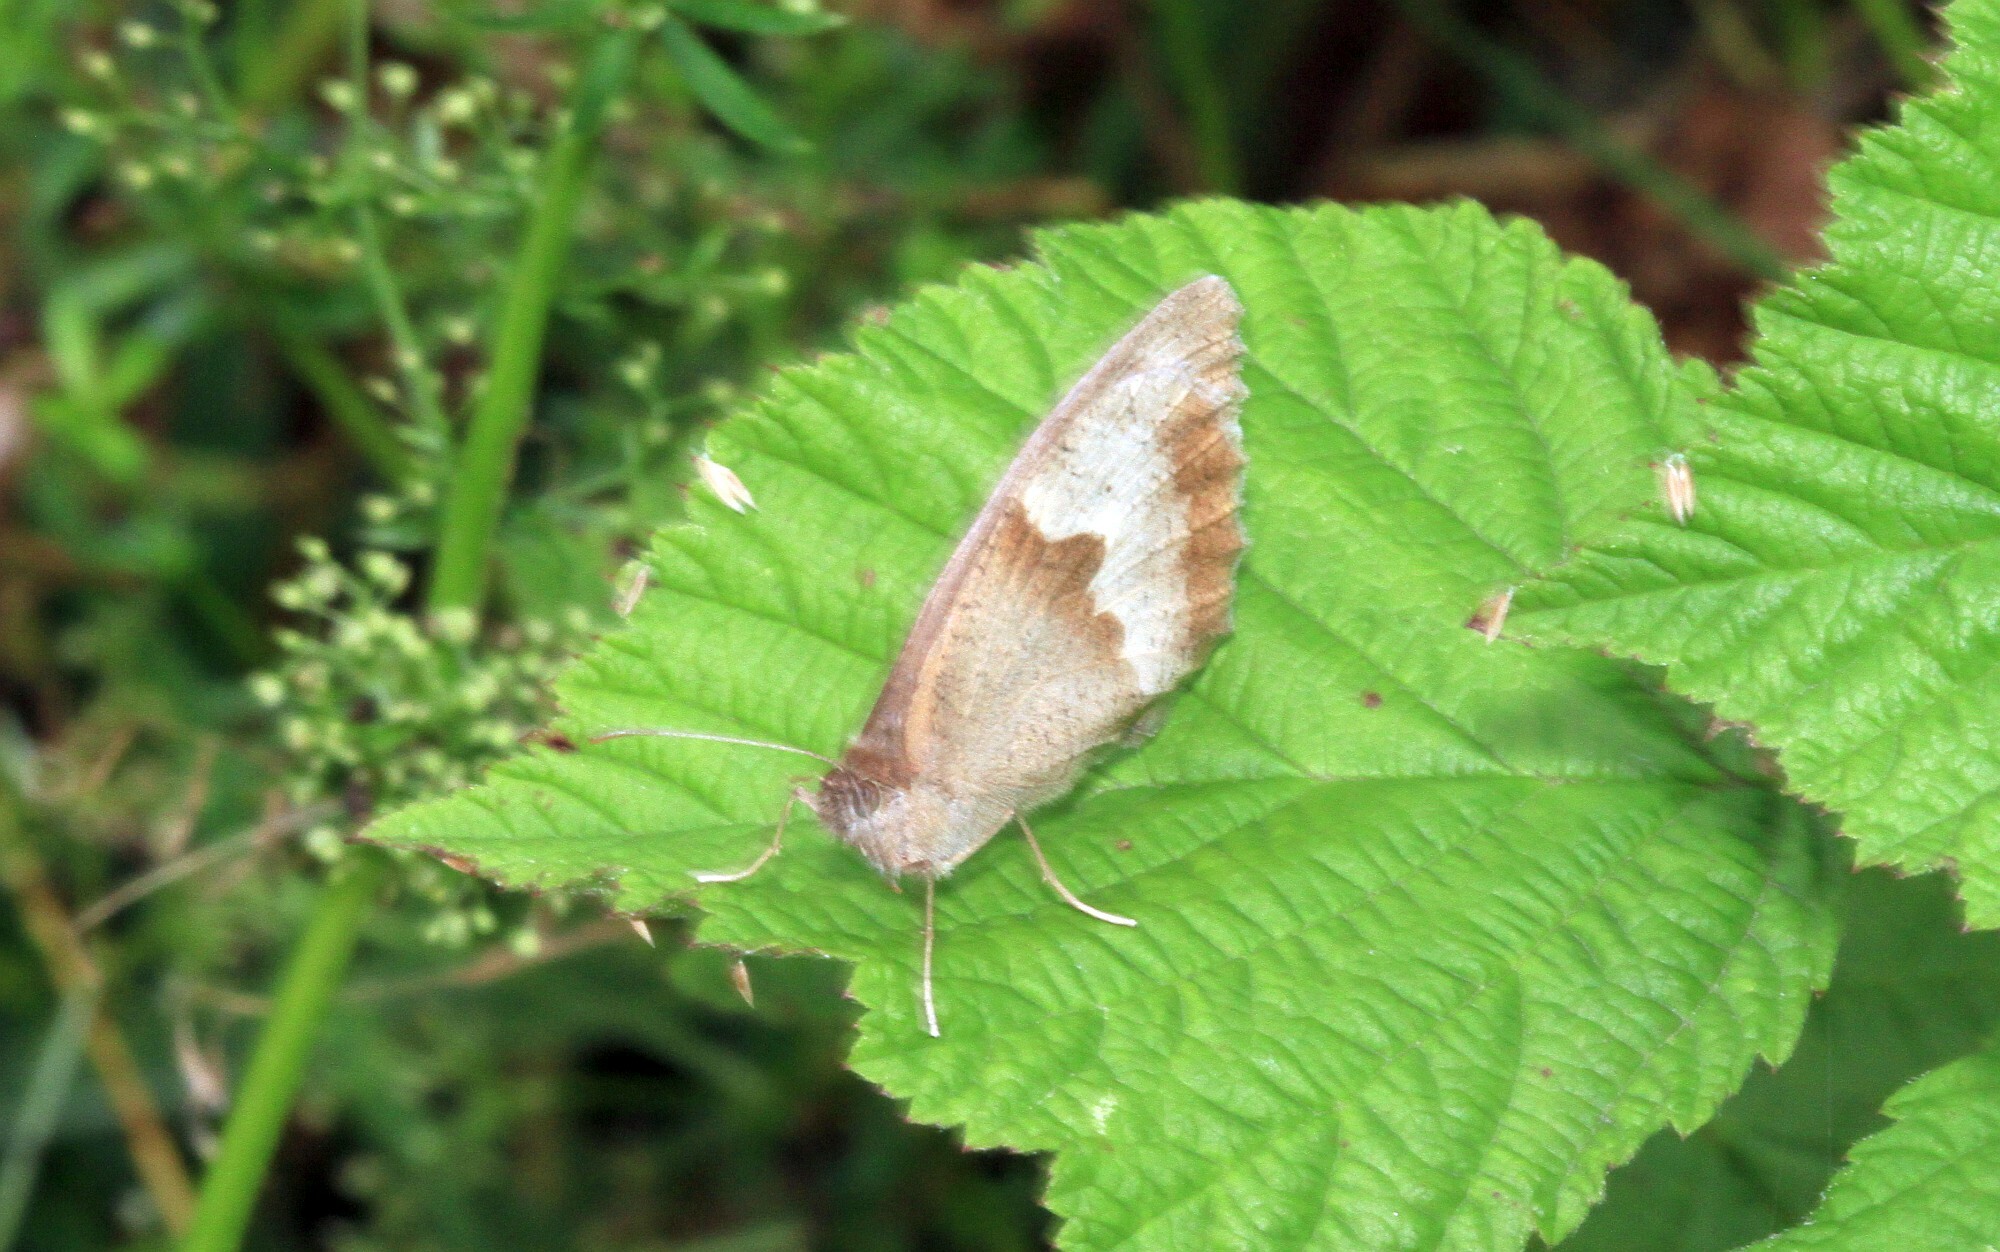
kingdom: Animalia
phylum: Arthropoda
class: Insecta
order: Lepidoptera
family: Nymphalidae
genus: Maniola
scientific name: Maniola jurtina
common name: Meadow brown
